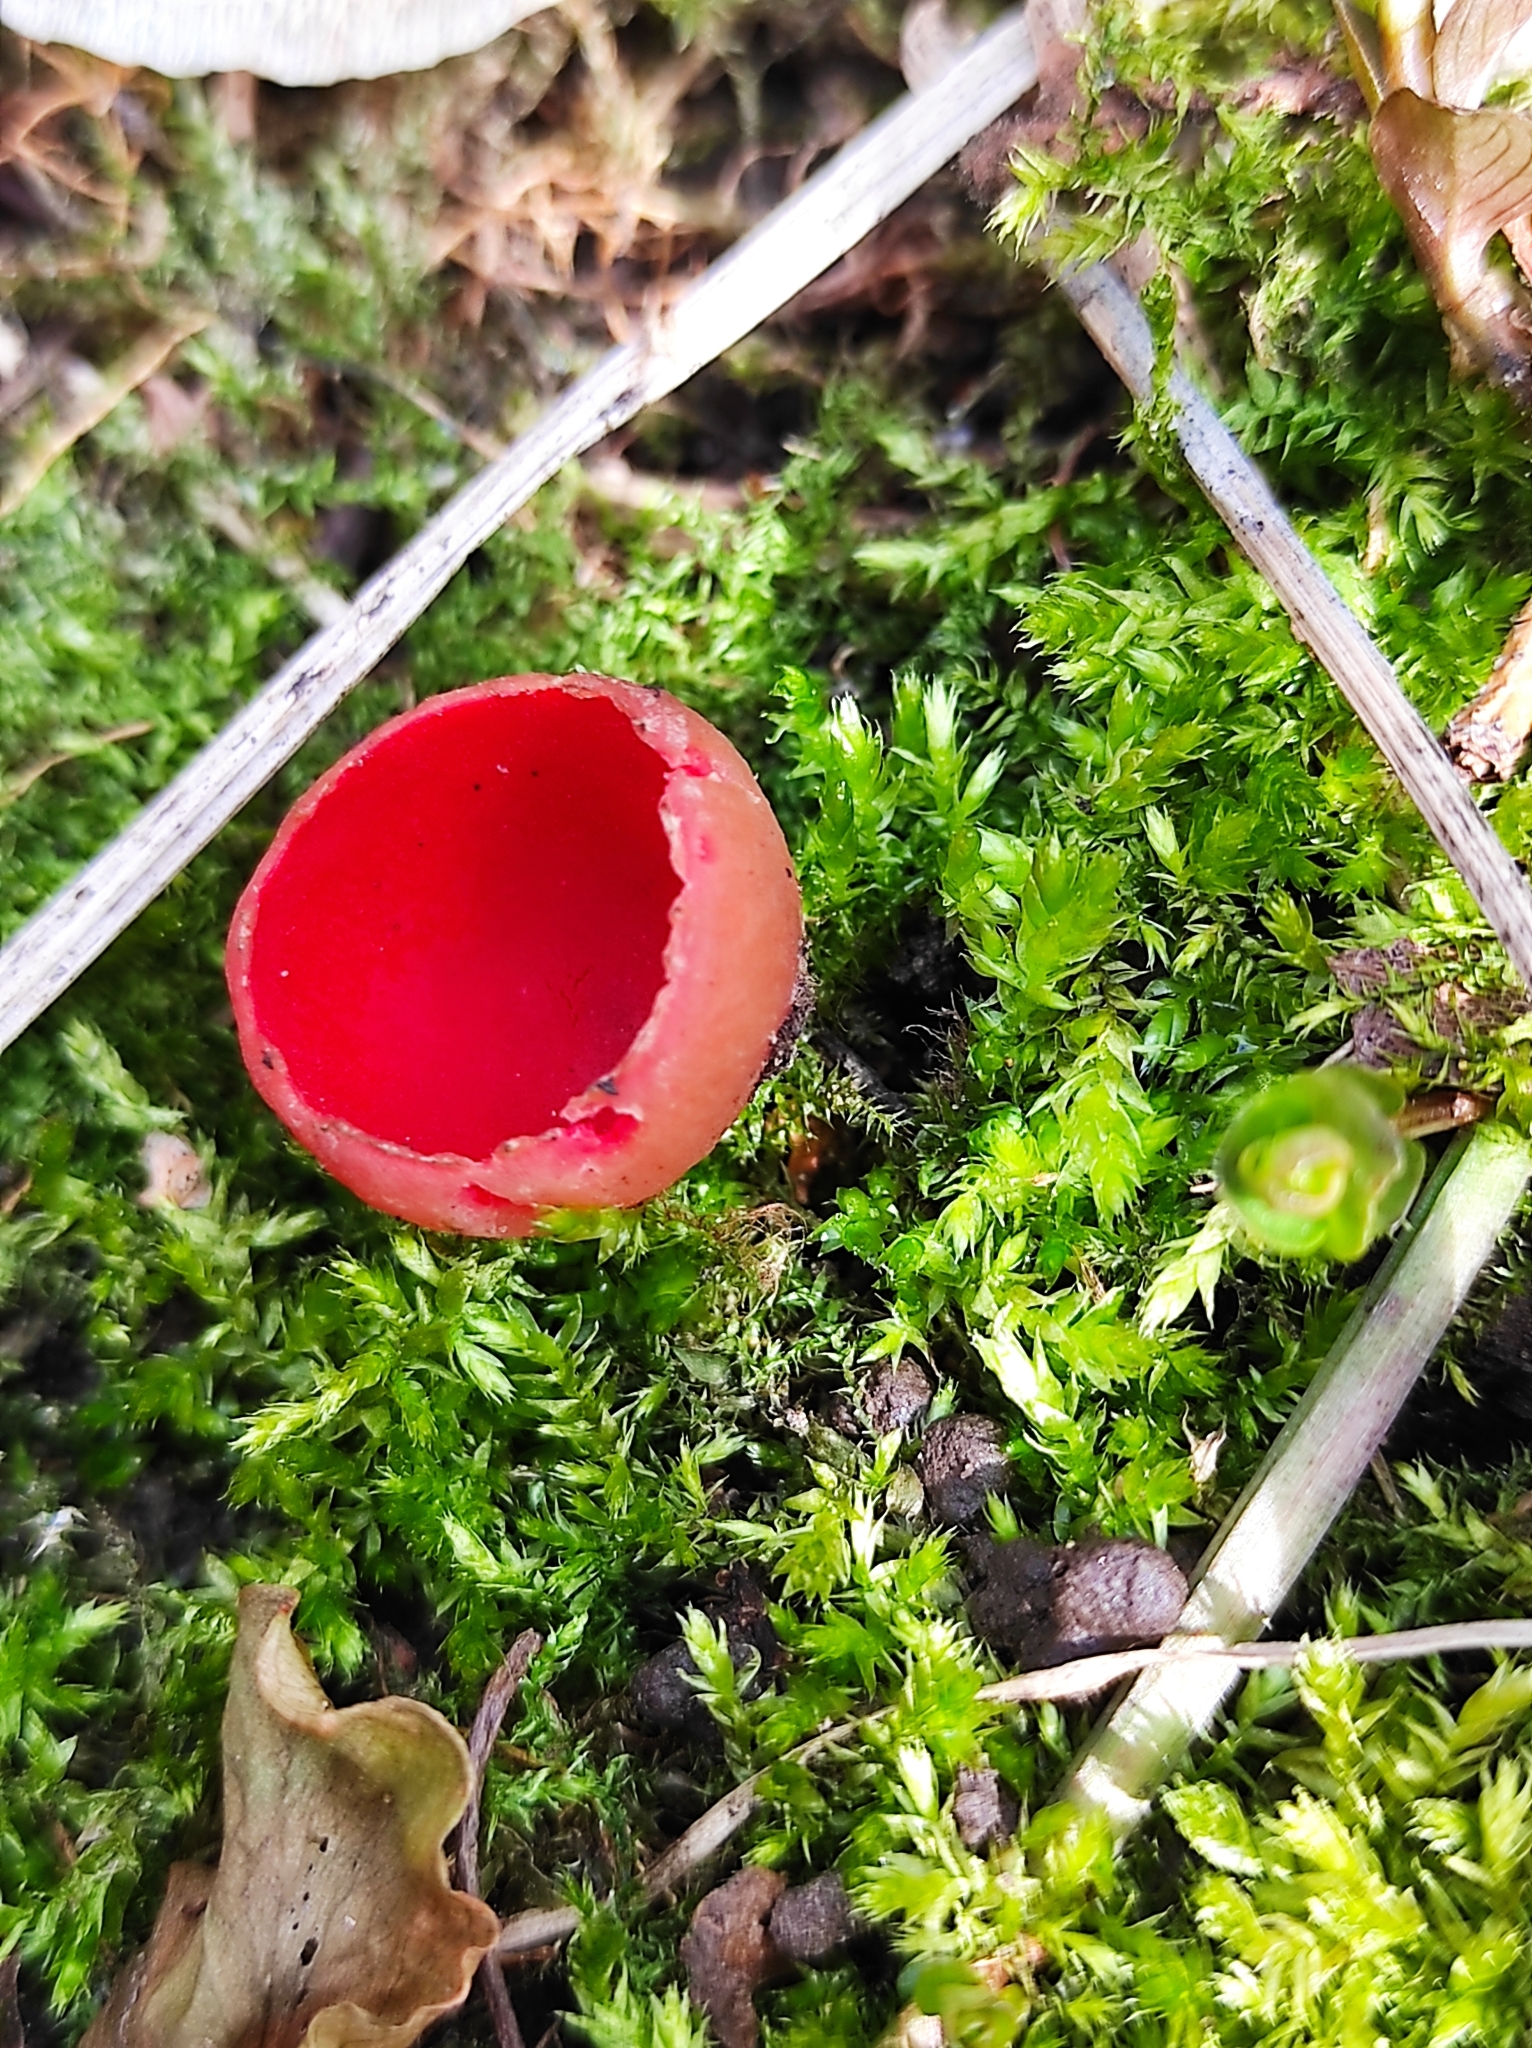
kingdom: Fungi
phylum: Ascomycota
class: Pezizomycetes
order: Pezizales
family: Sarcoscyphaceae
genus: Sarcoscypha
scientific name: Sarcoscypha austriaca
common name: Scarlet elfcup
